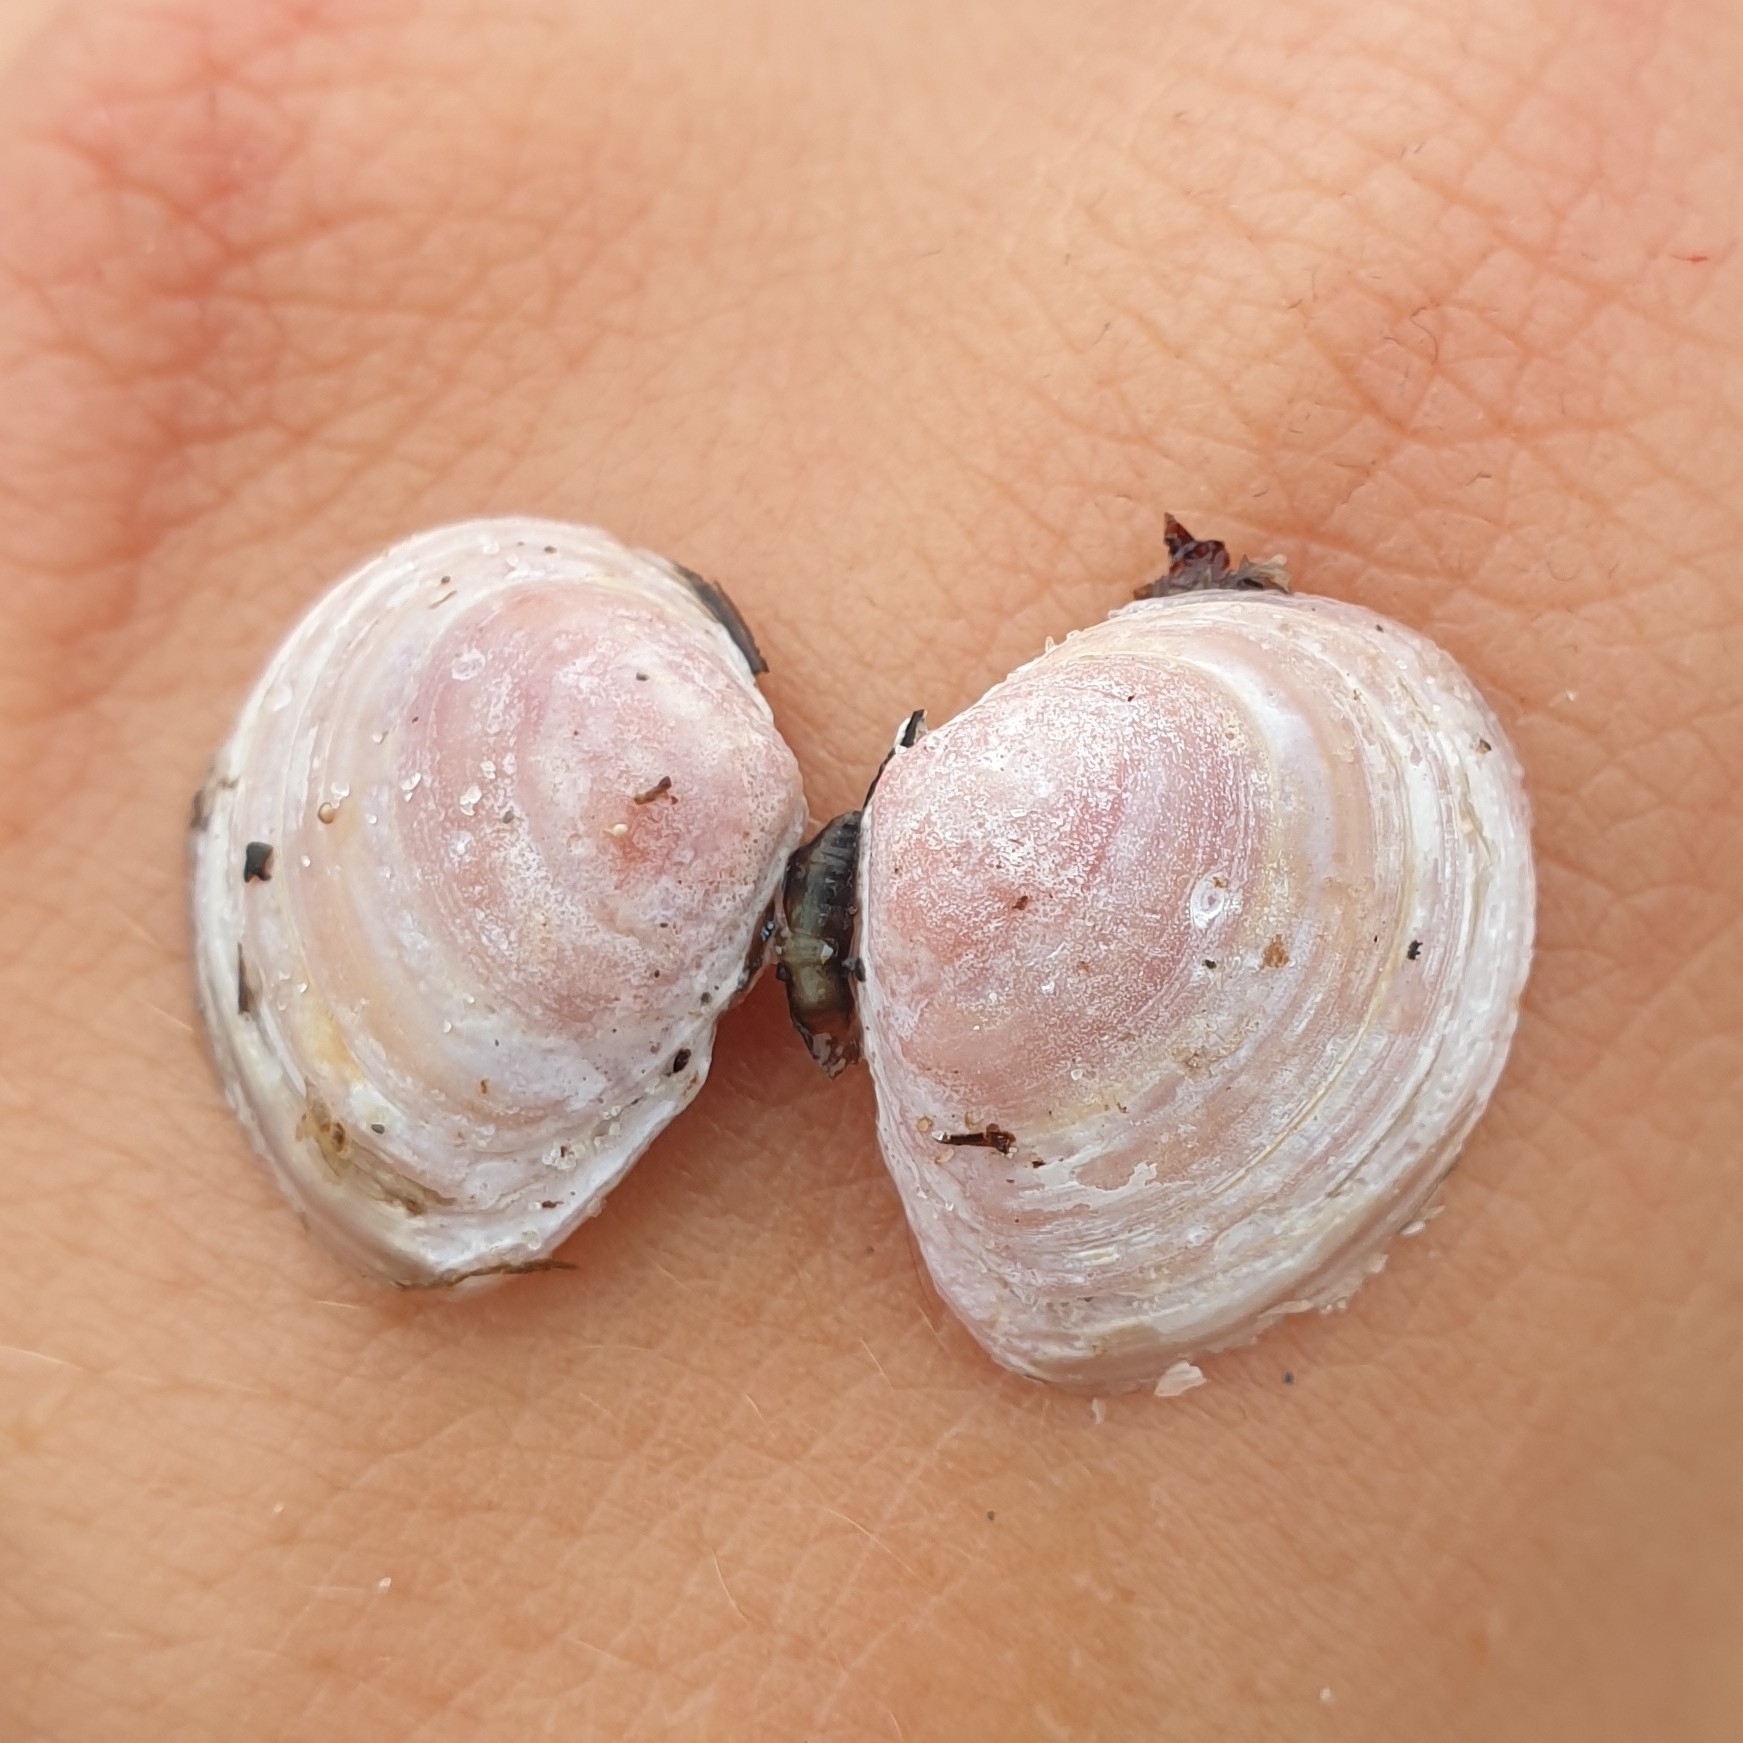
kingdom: Animalia
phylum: Mollusca
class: Bivalvia
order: Cardiida
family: Tellinidae
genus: Macoma
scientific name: Macoma balthica
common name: Baltic tellin
